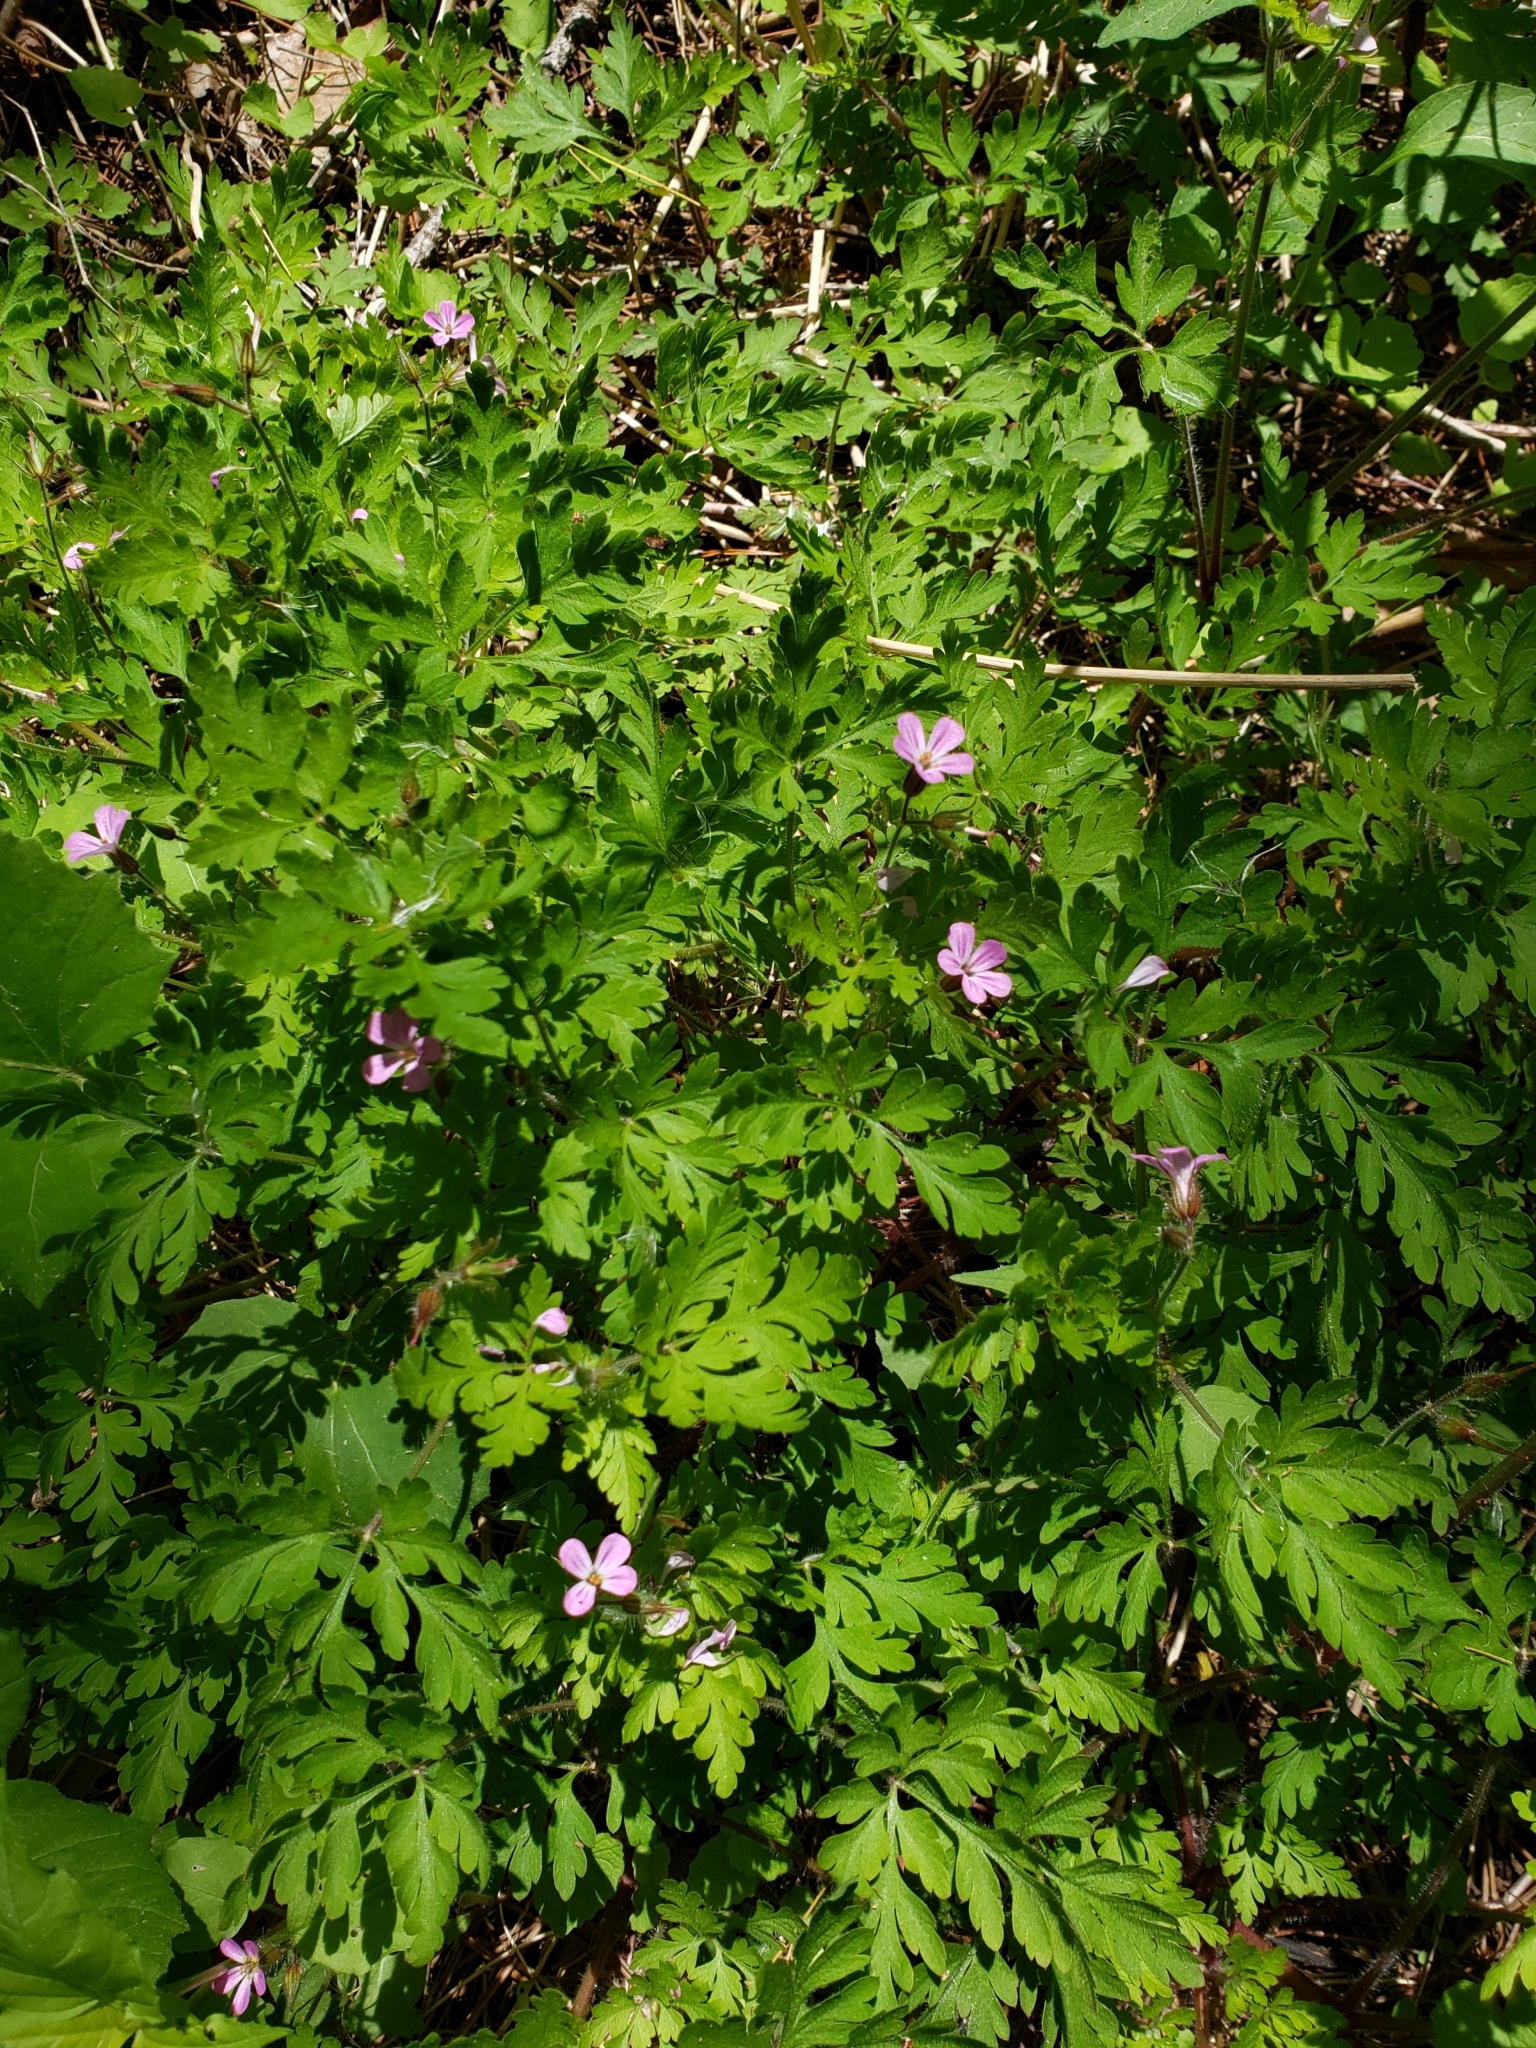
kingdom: Plantae
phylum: Tracheophyta
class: Magnoliopsida
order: Geraniales
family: Geraniaceae
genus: Geranium
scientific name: Geranium robertianum
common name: Herb-robert
